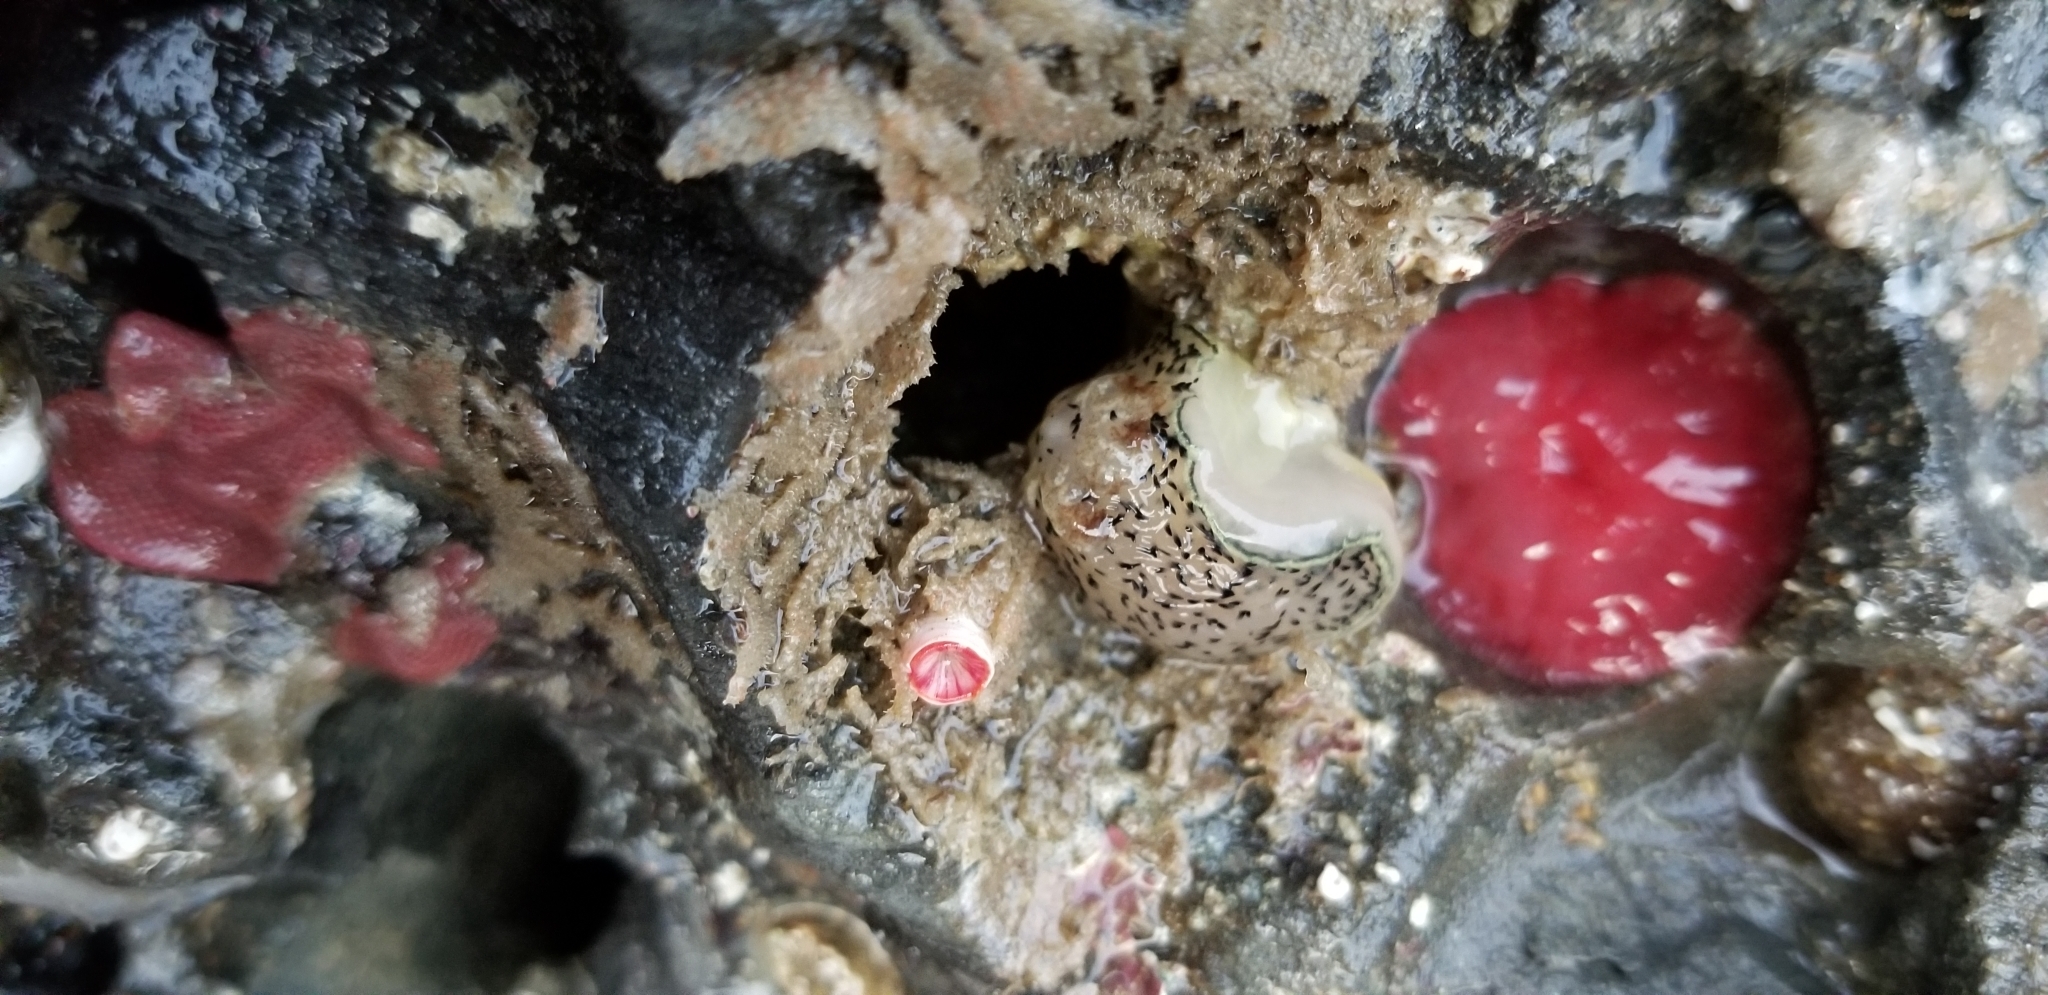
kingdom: Animalia
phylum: Mollusca
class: Gastropoda
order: Nudibranchia
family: Onchidorididae
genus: Acanthodoris
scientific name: Acanthodoris rhodoceras
